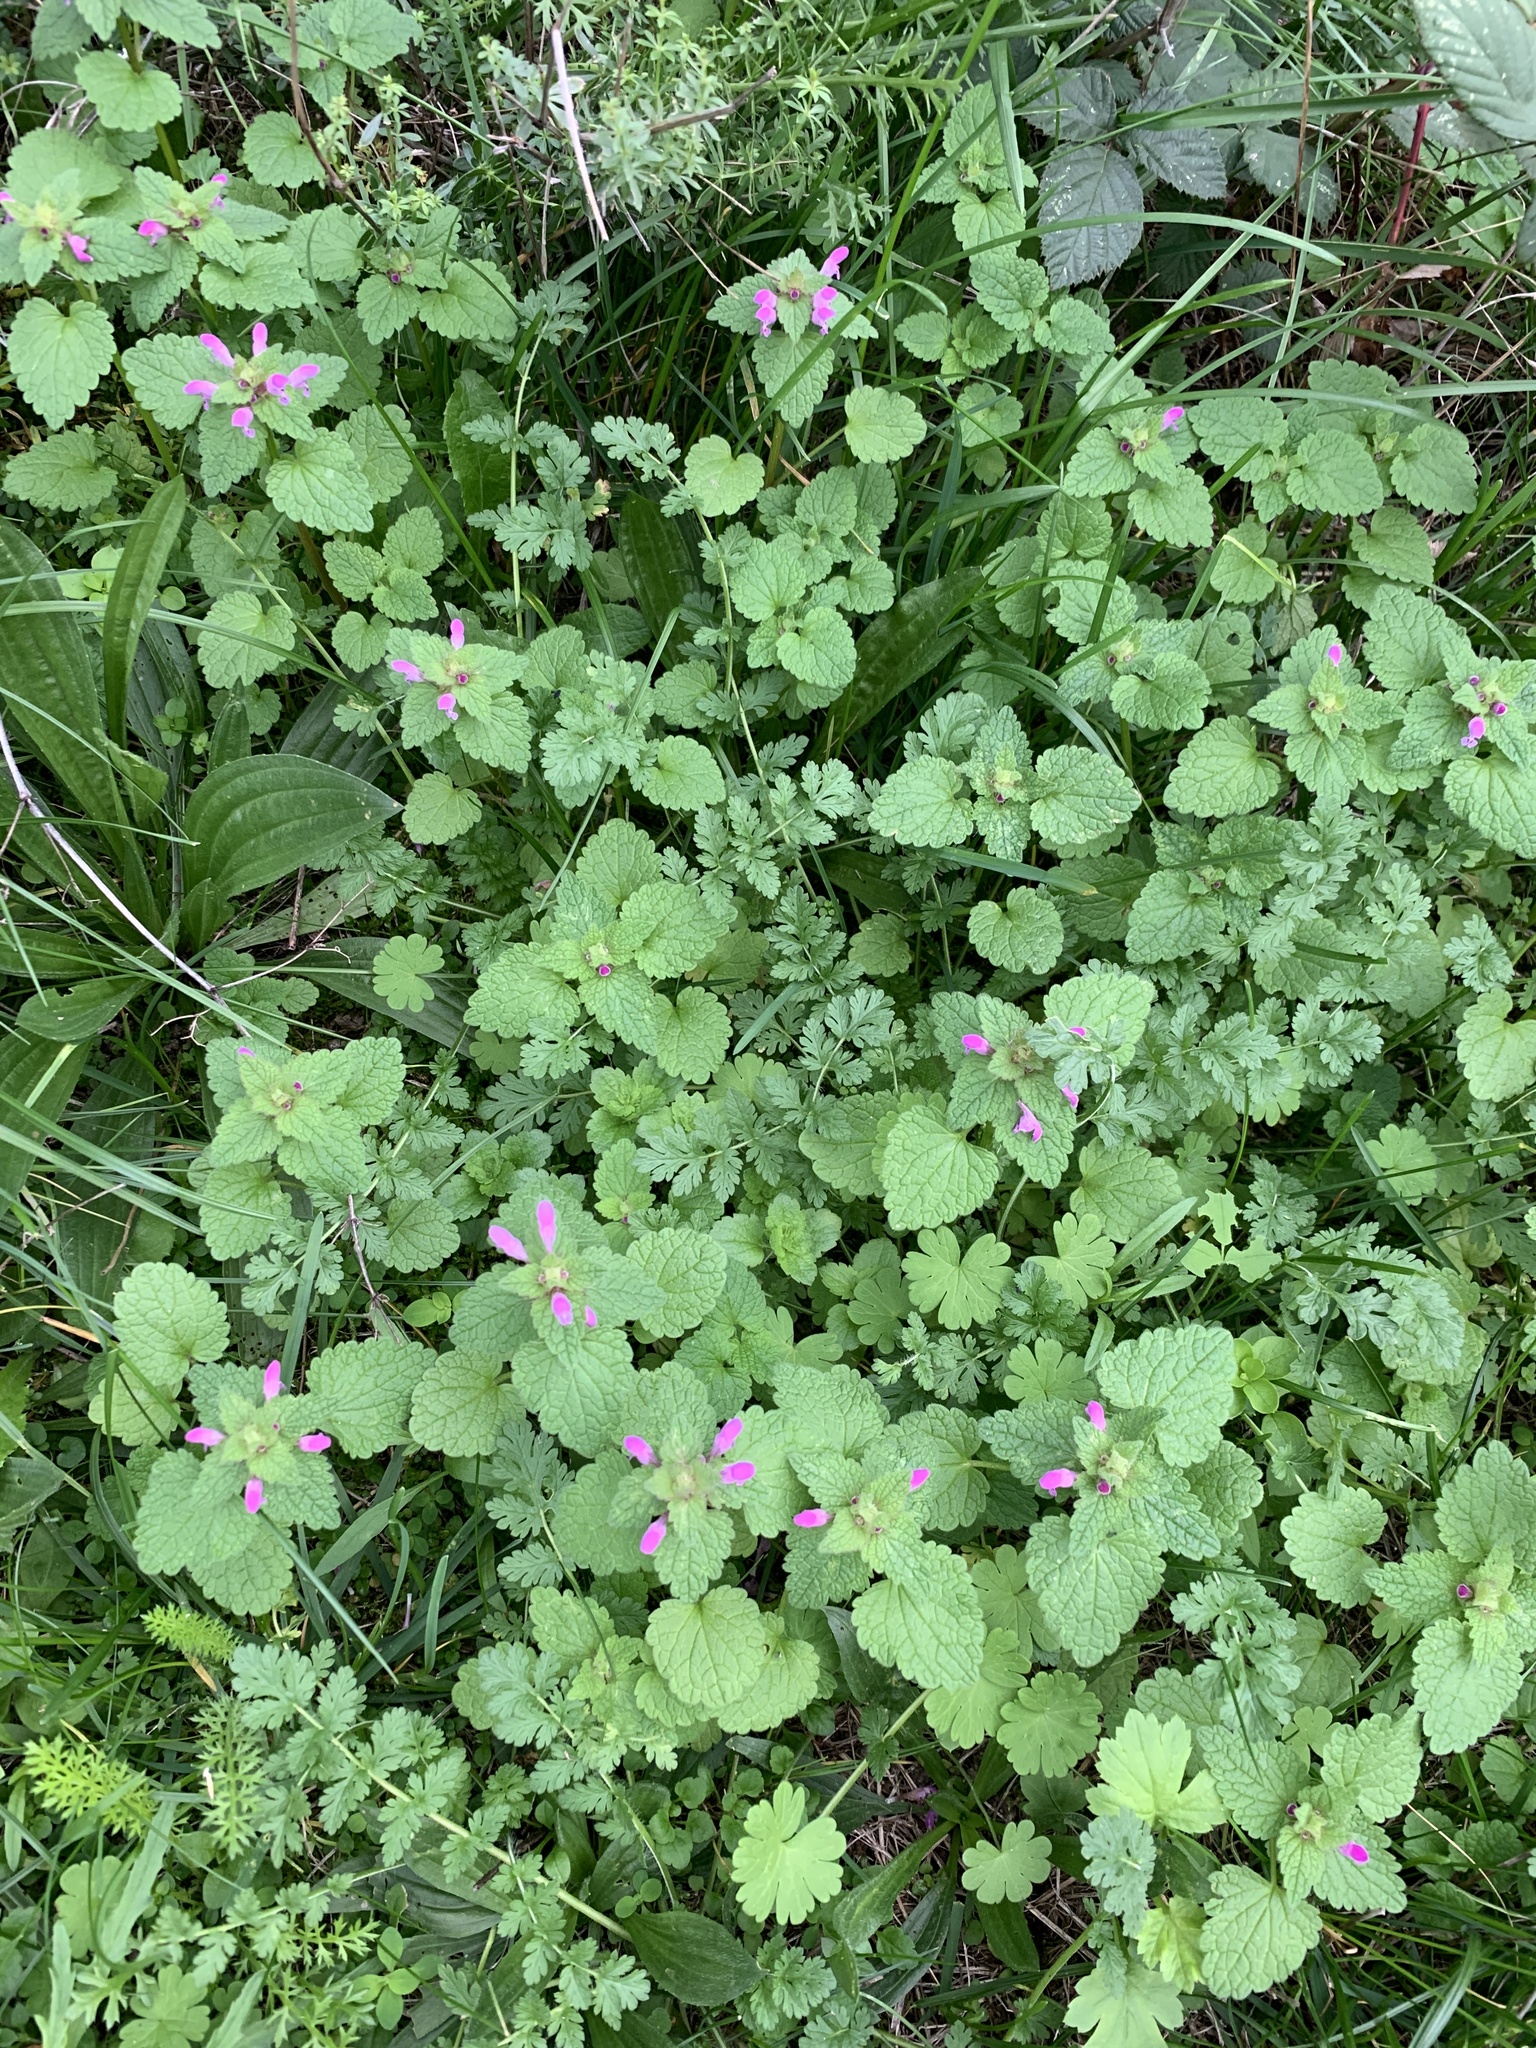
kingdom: Plantae
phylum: Tracheophyta
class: Magnoliopsida
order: Lamiales
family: Lamiaceae
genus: Lamium
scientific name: Lamium purpureum
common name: Red dead-nettle
